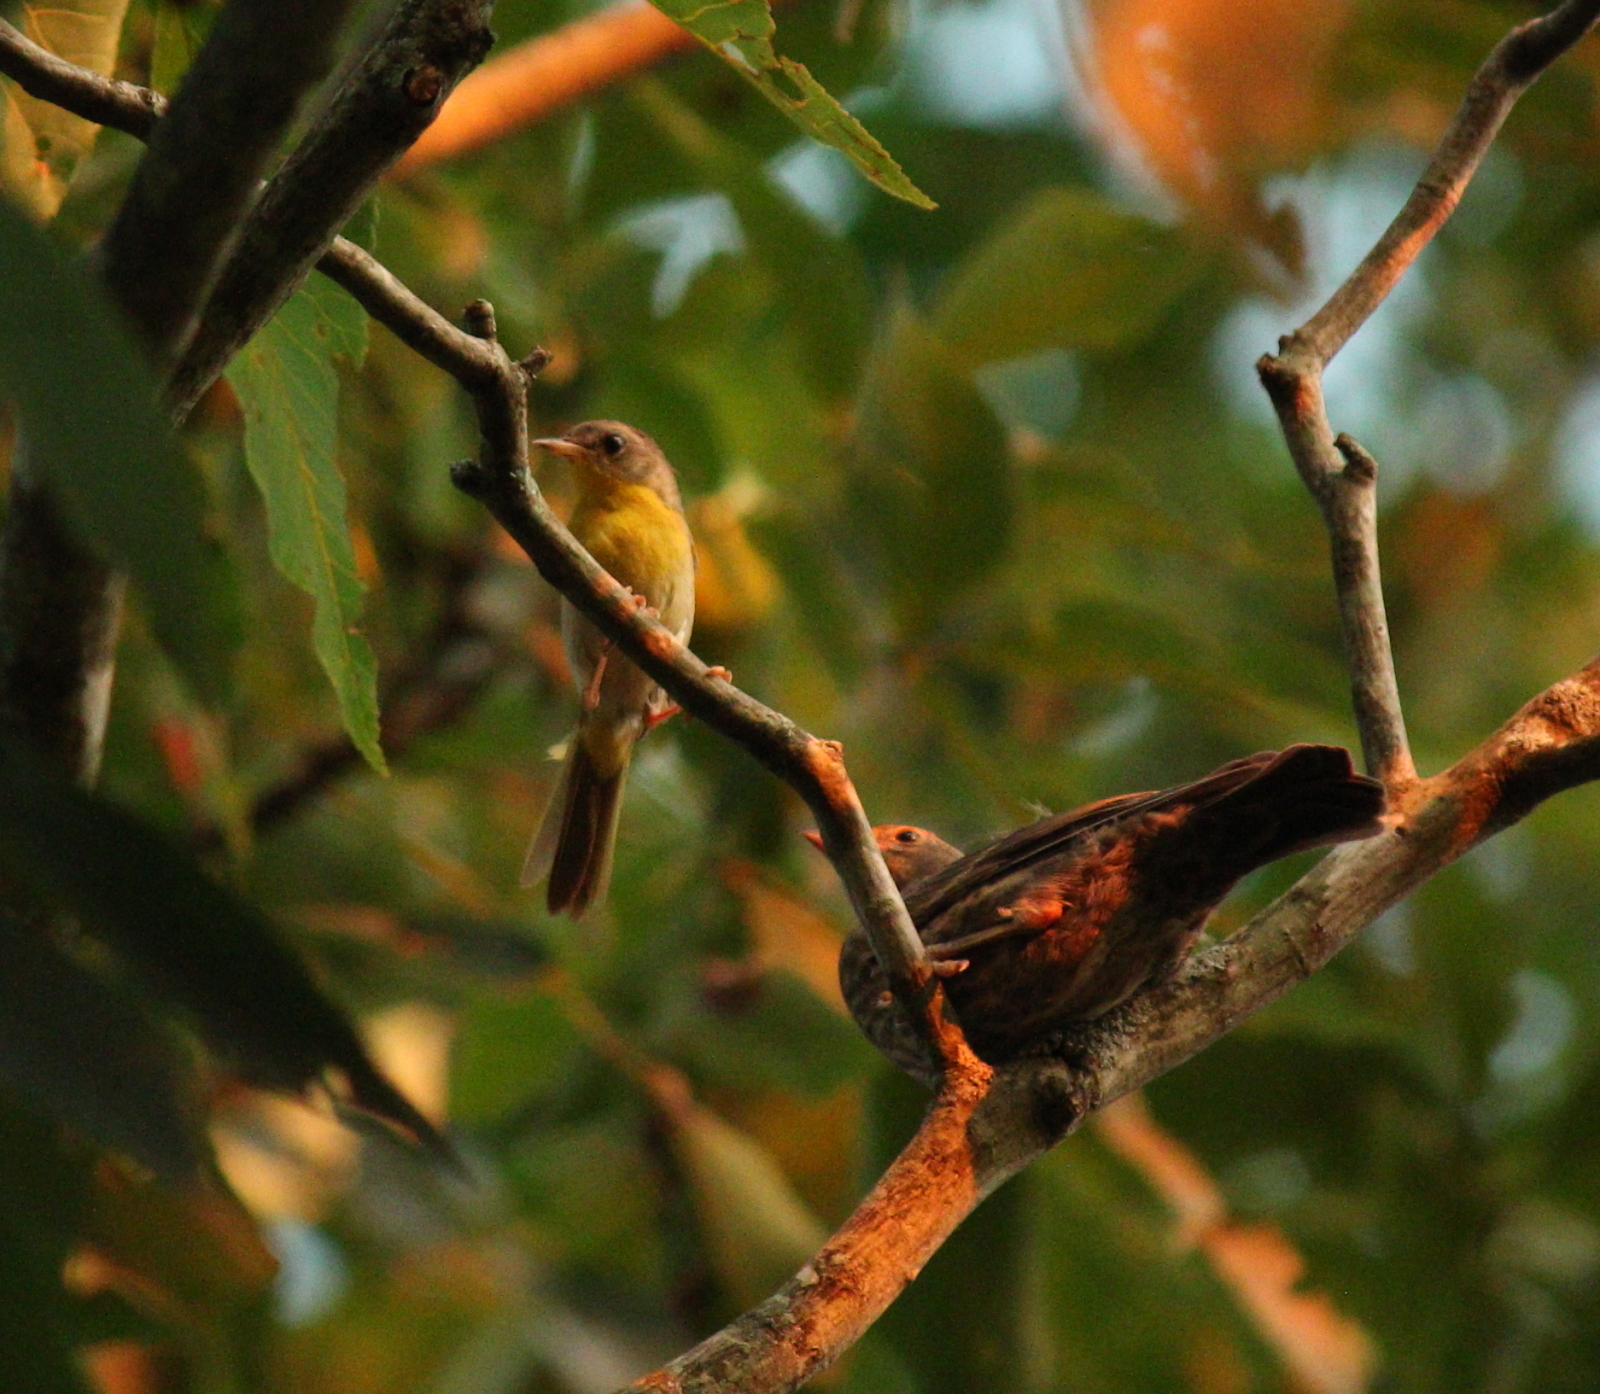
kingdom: Animalia
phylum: Chordata
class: Aves
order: Passeriformes
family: Parulidae
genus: Geothlypis
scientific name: Geothlypis trichas
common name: Common yellowthroat
